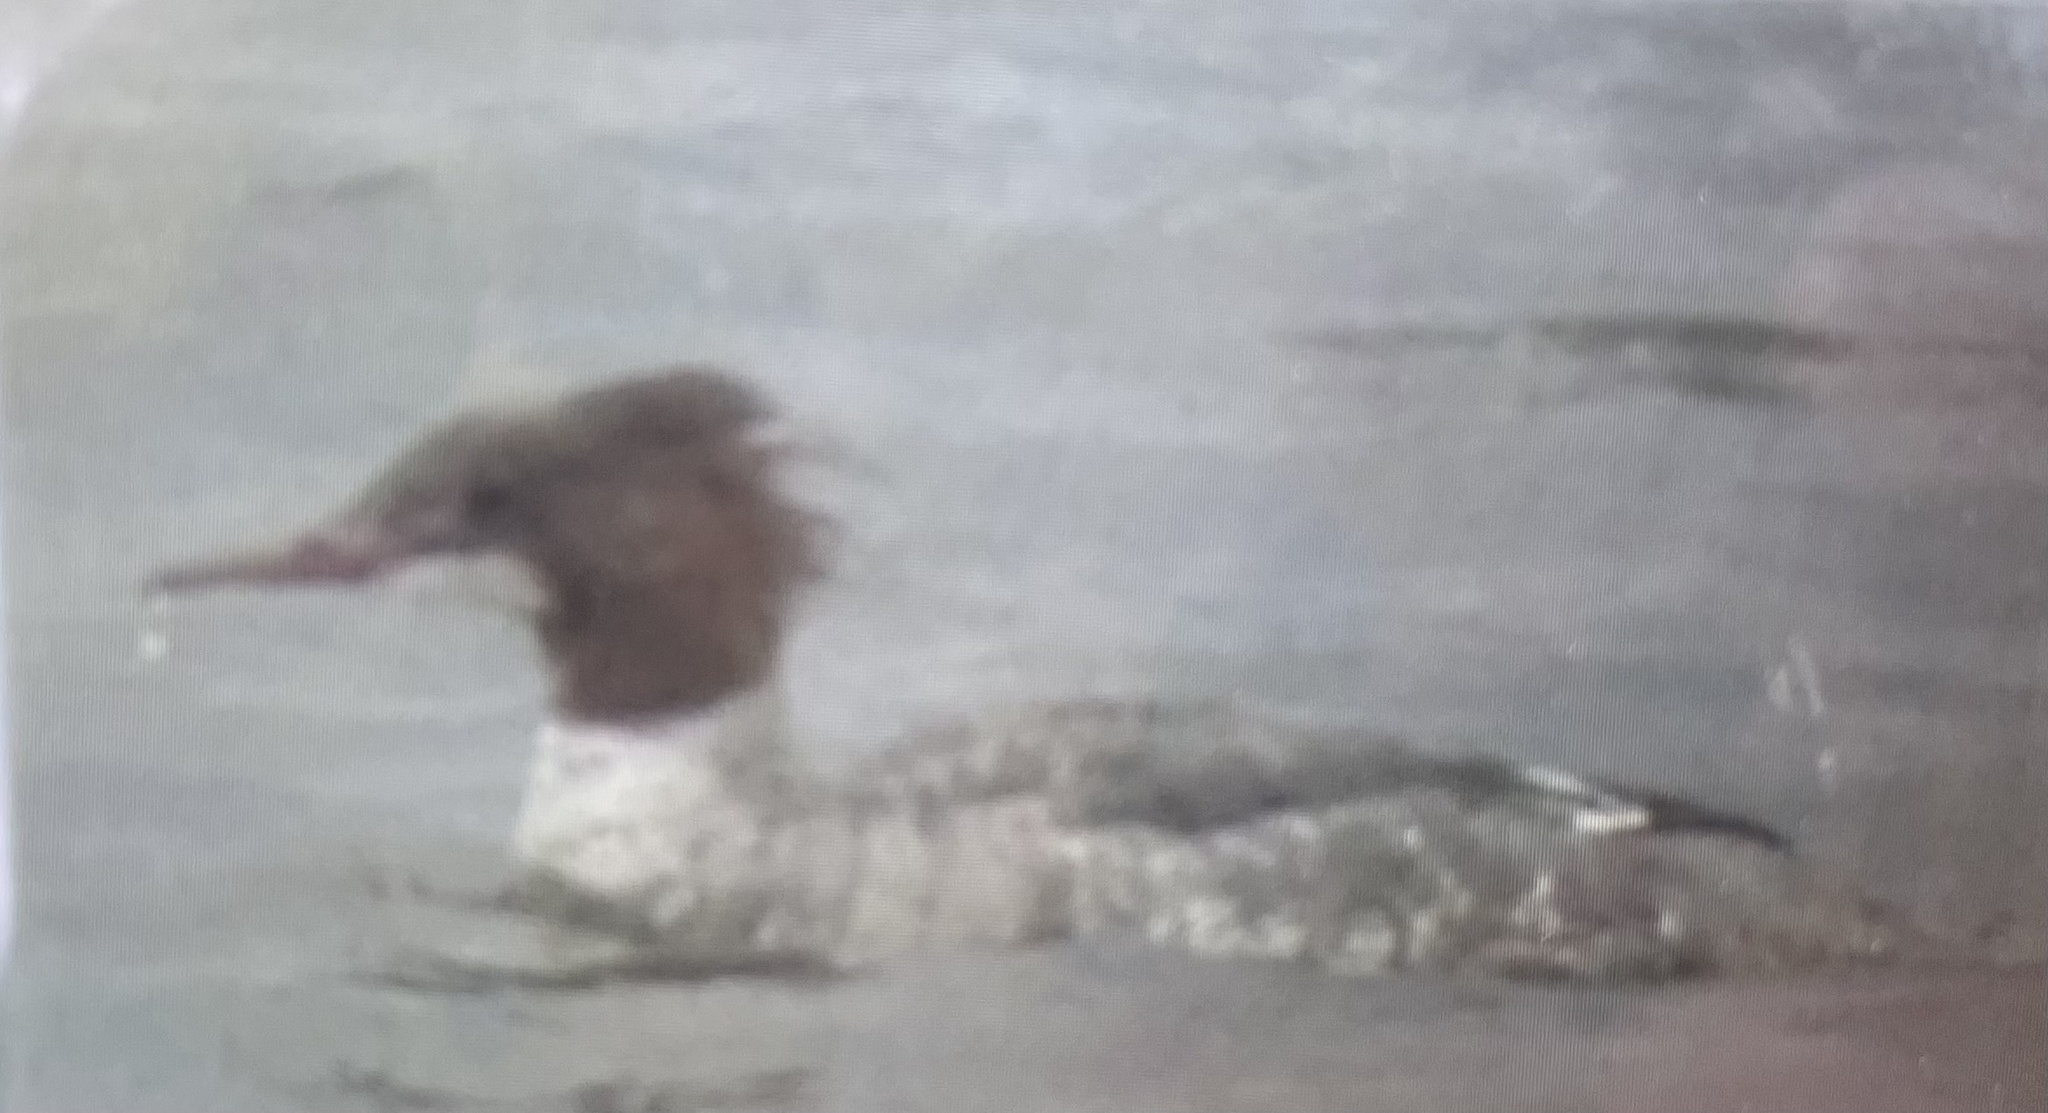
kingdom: Animalia
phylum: Chordata
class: Aves
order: Anseriformes
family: Anatidae
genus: Mergus
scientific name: Mergus merganser
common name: Common merganser
